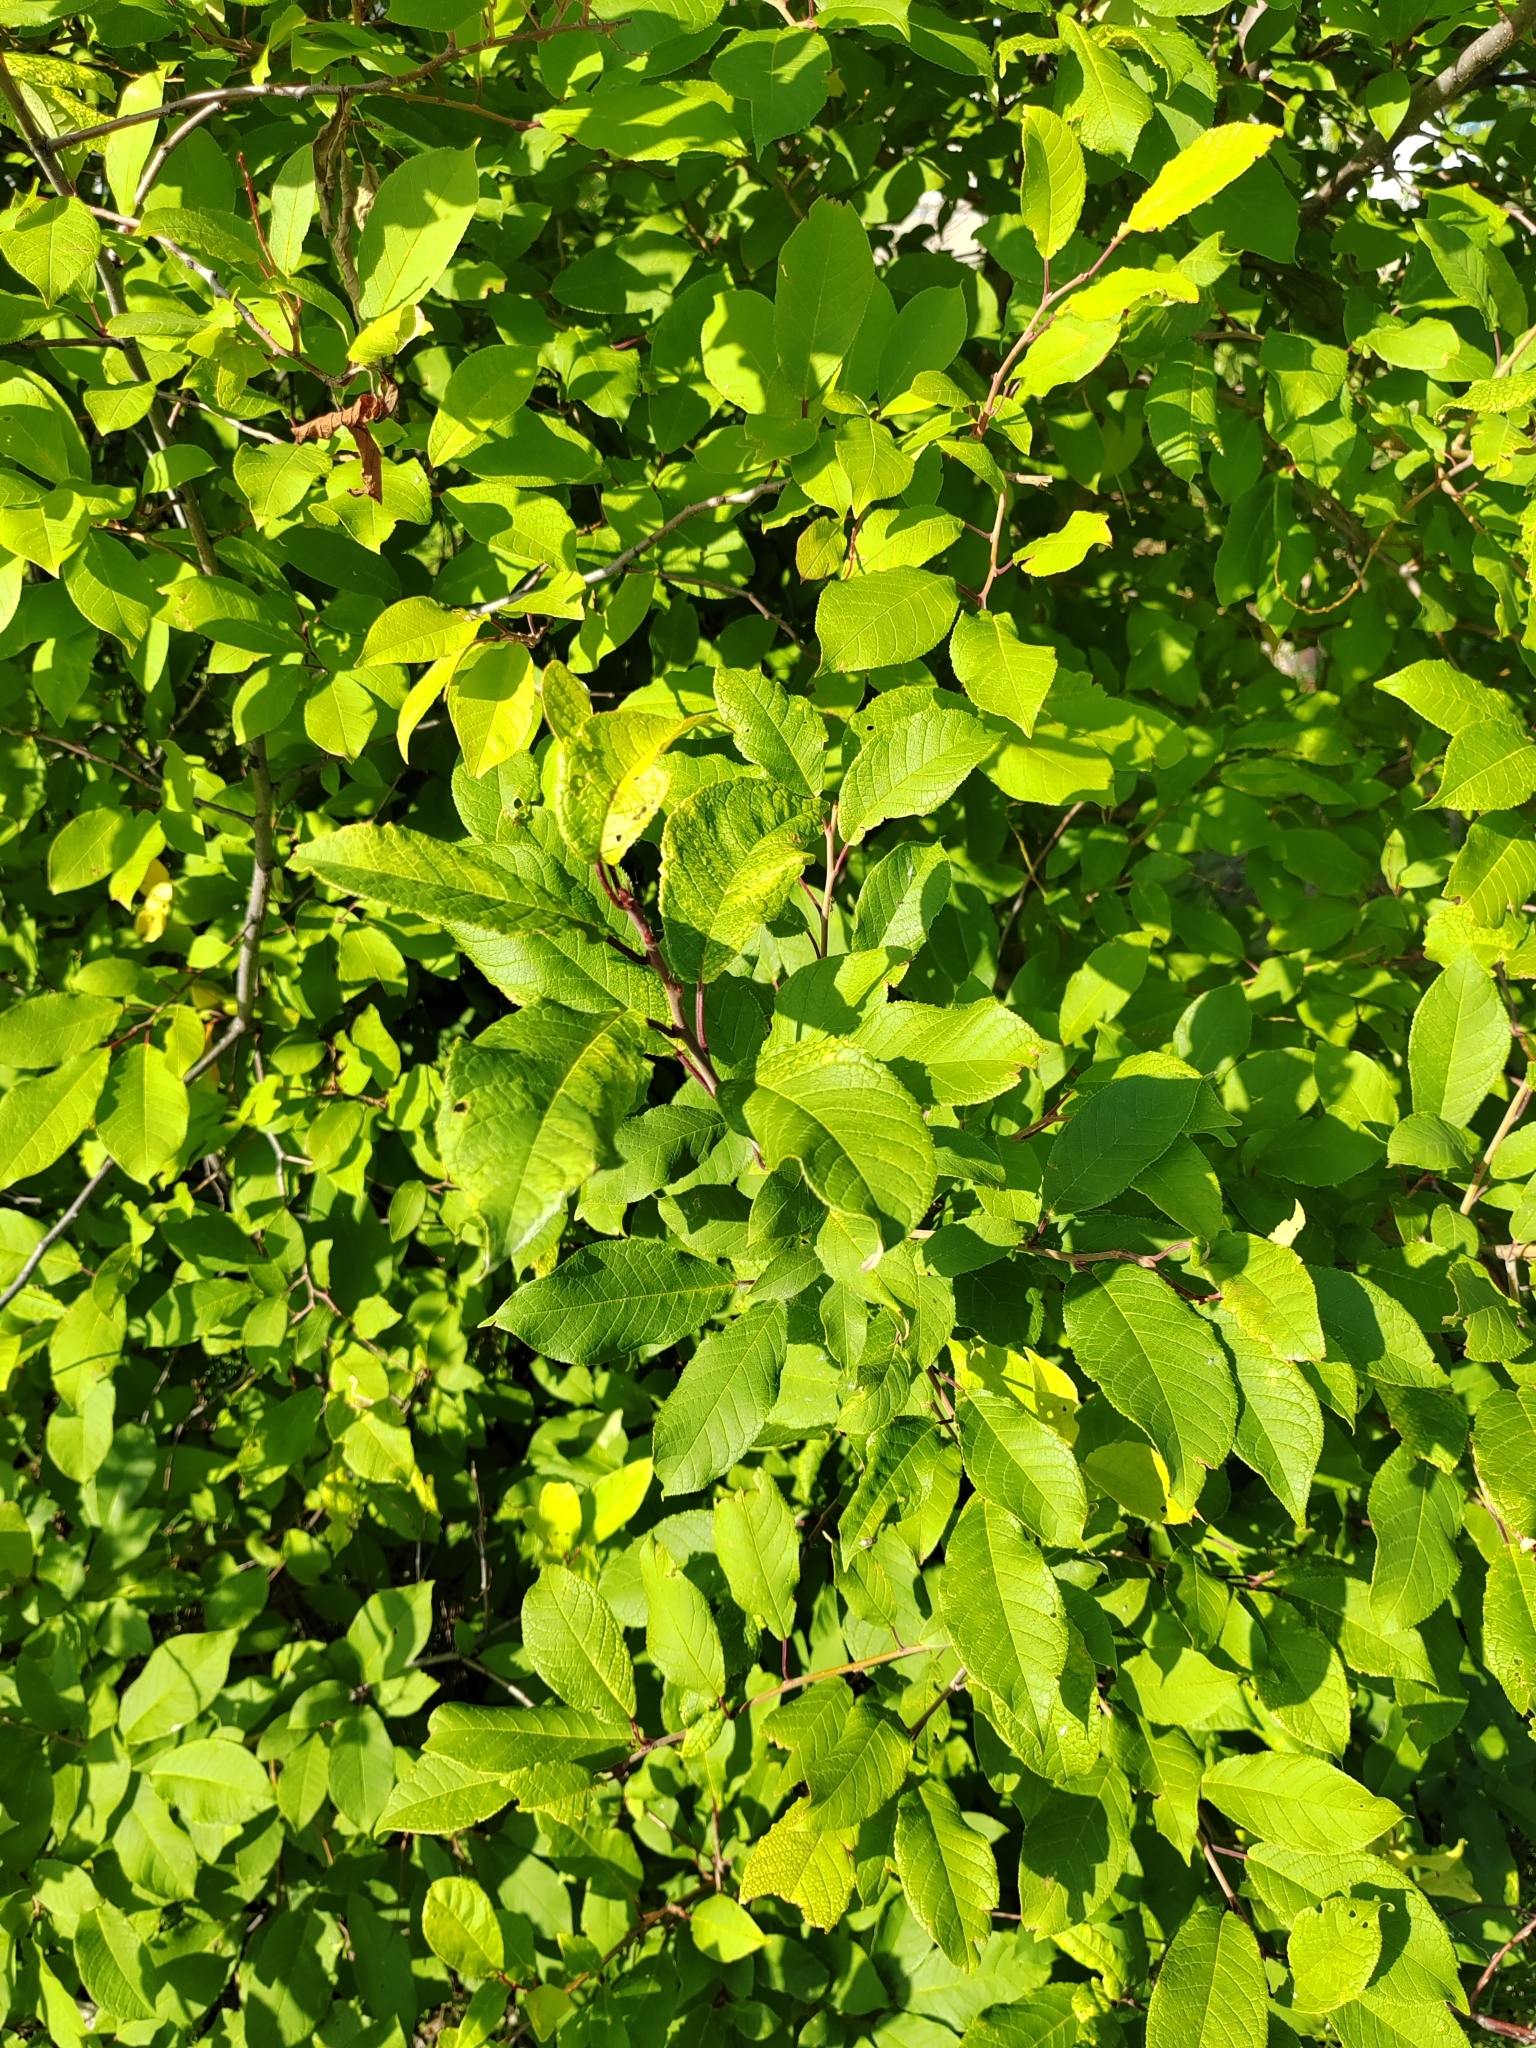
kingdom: Plantae
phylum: Tracheophyta
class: Magnoliopsida
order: Rosales
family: Rosaceae
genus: Prunus
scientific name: Prunus padus
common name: Bird cherry
